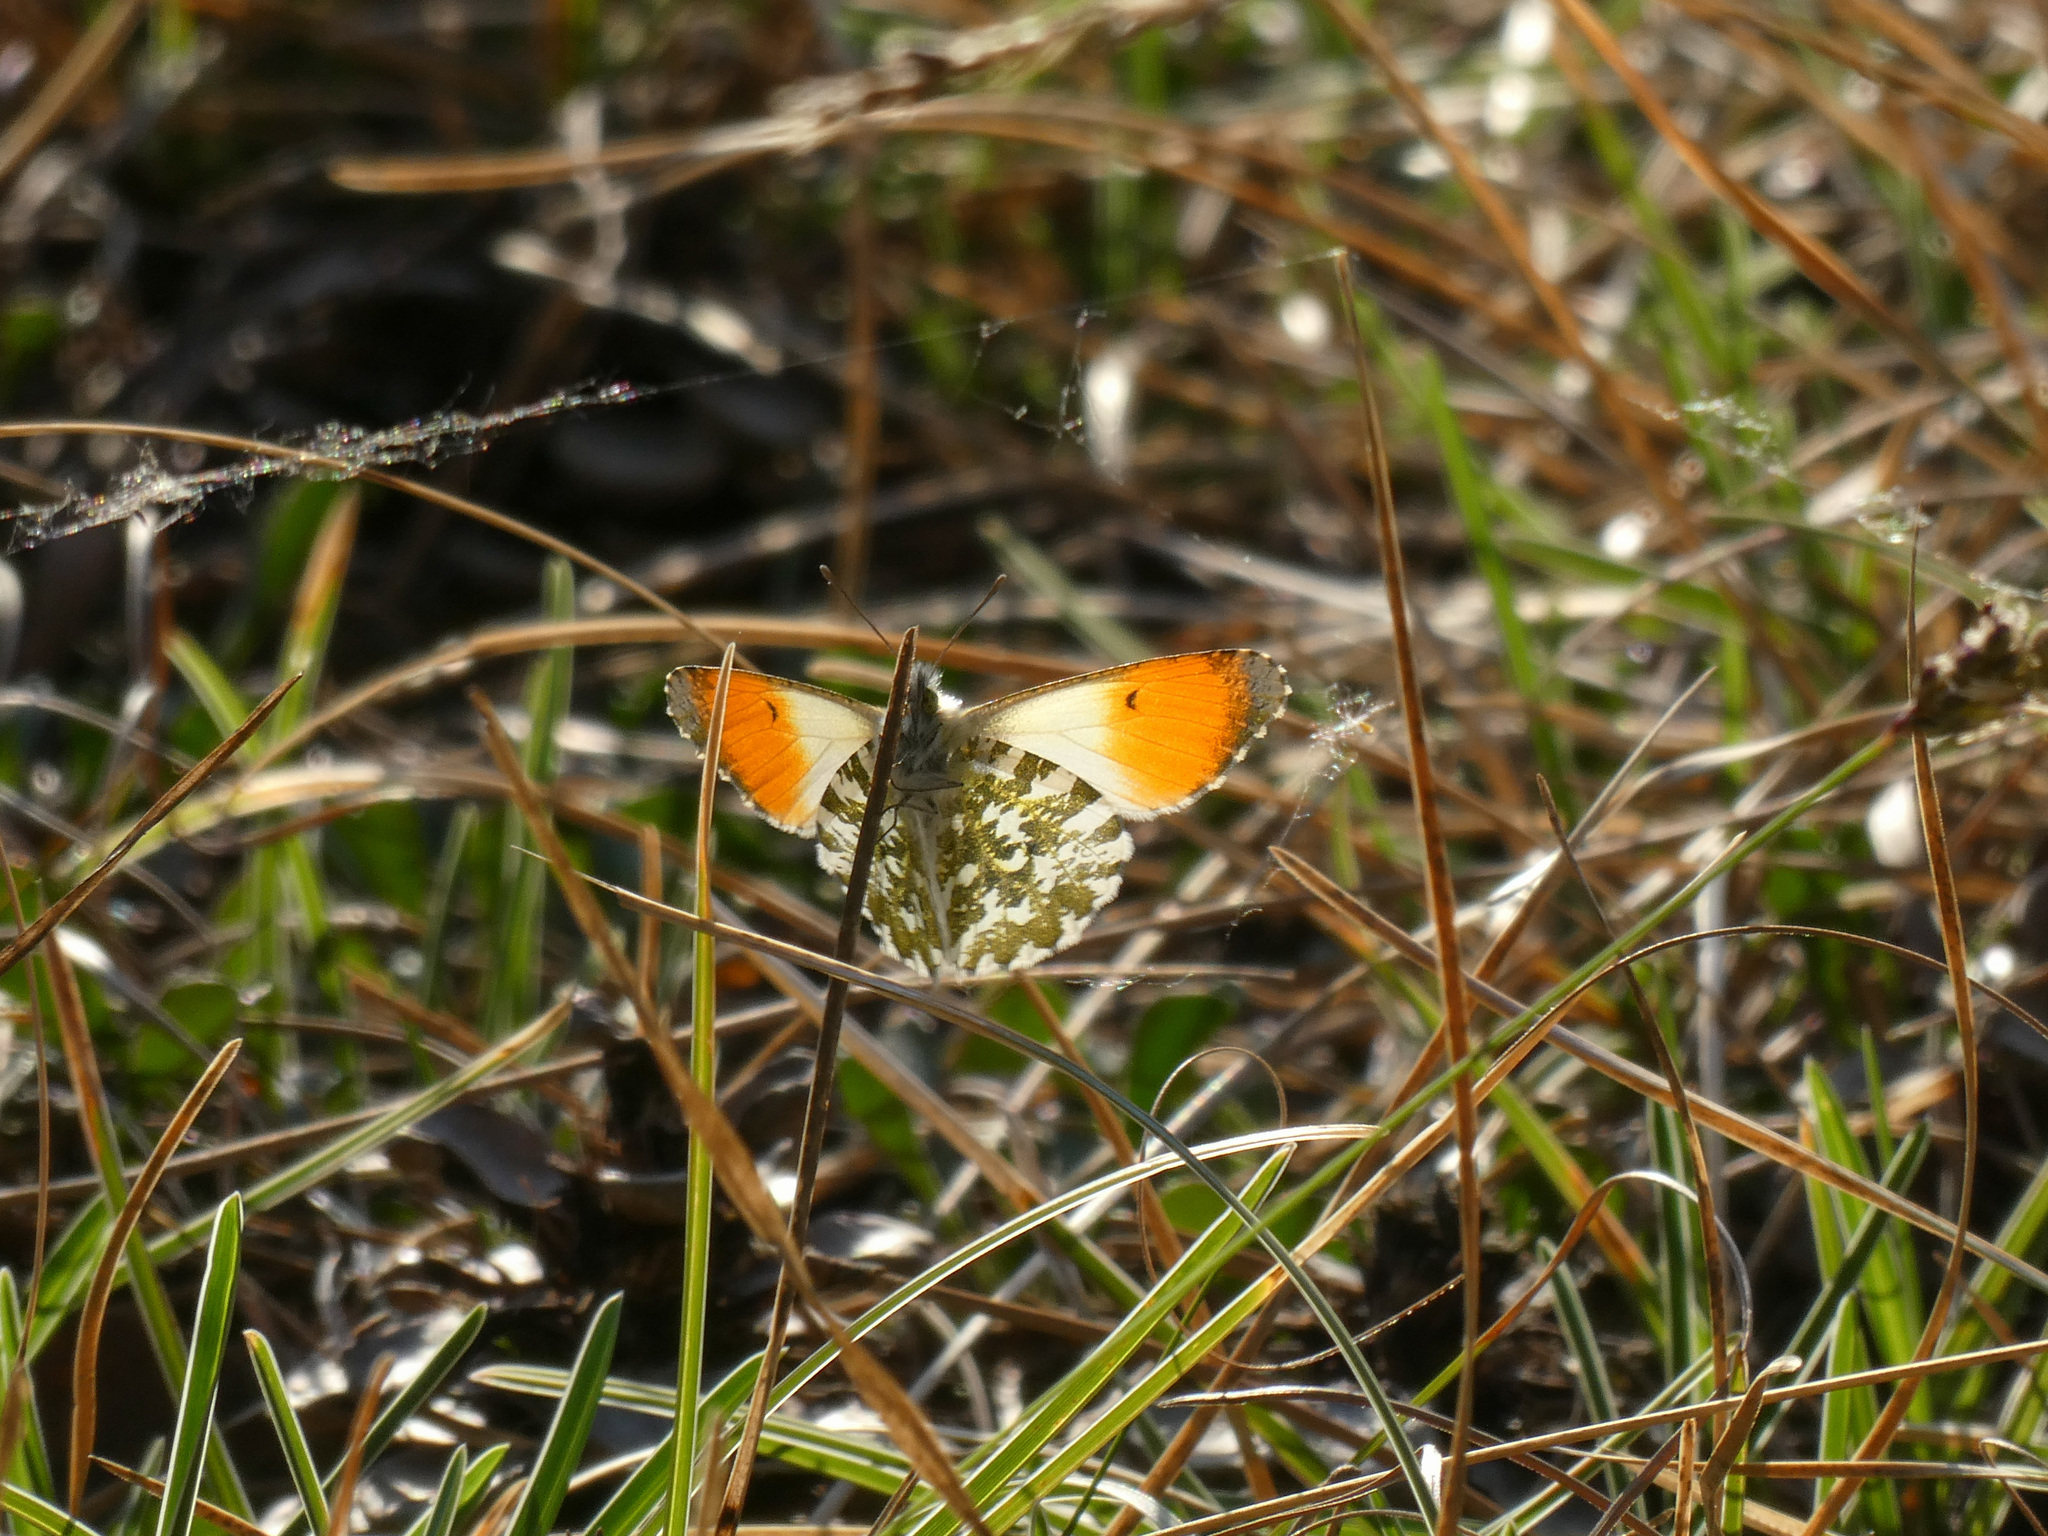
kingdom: Animalia
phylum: Arthropoda
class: Insecta
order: Lepidoptera
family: Pieridae
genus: Anthocharis
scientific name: Anthocharis cardamines
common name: Orange-tip
